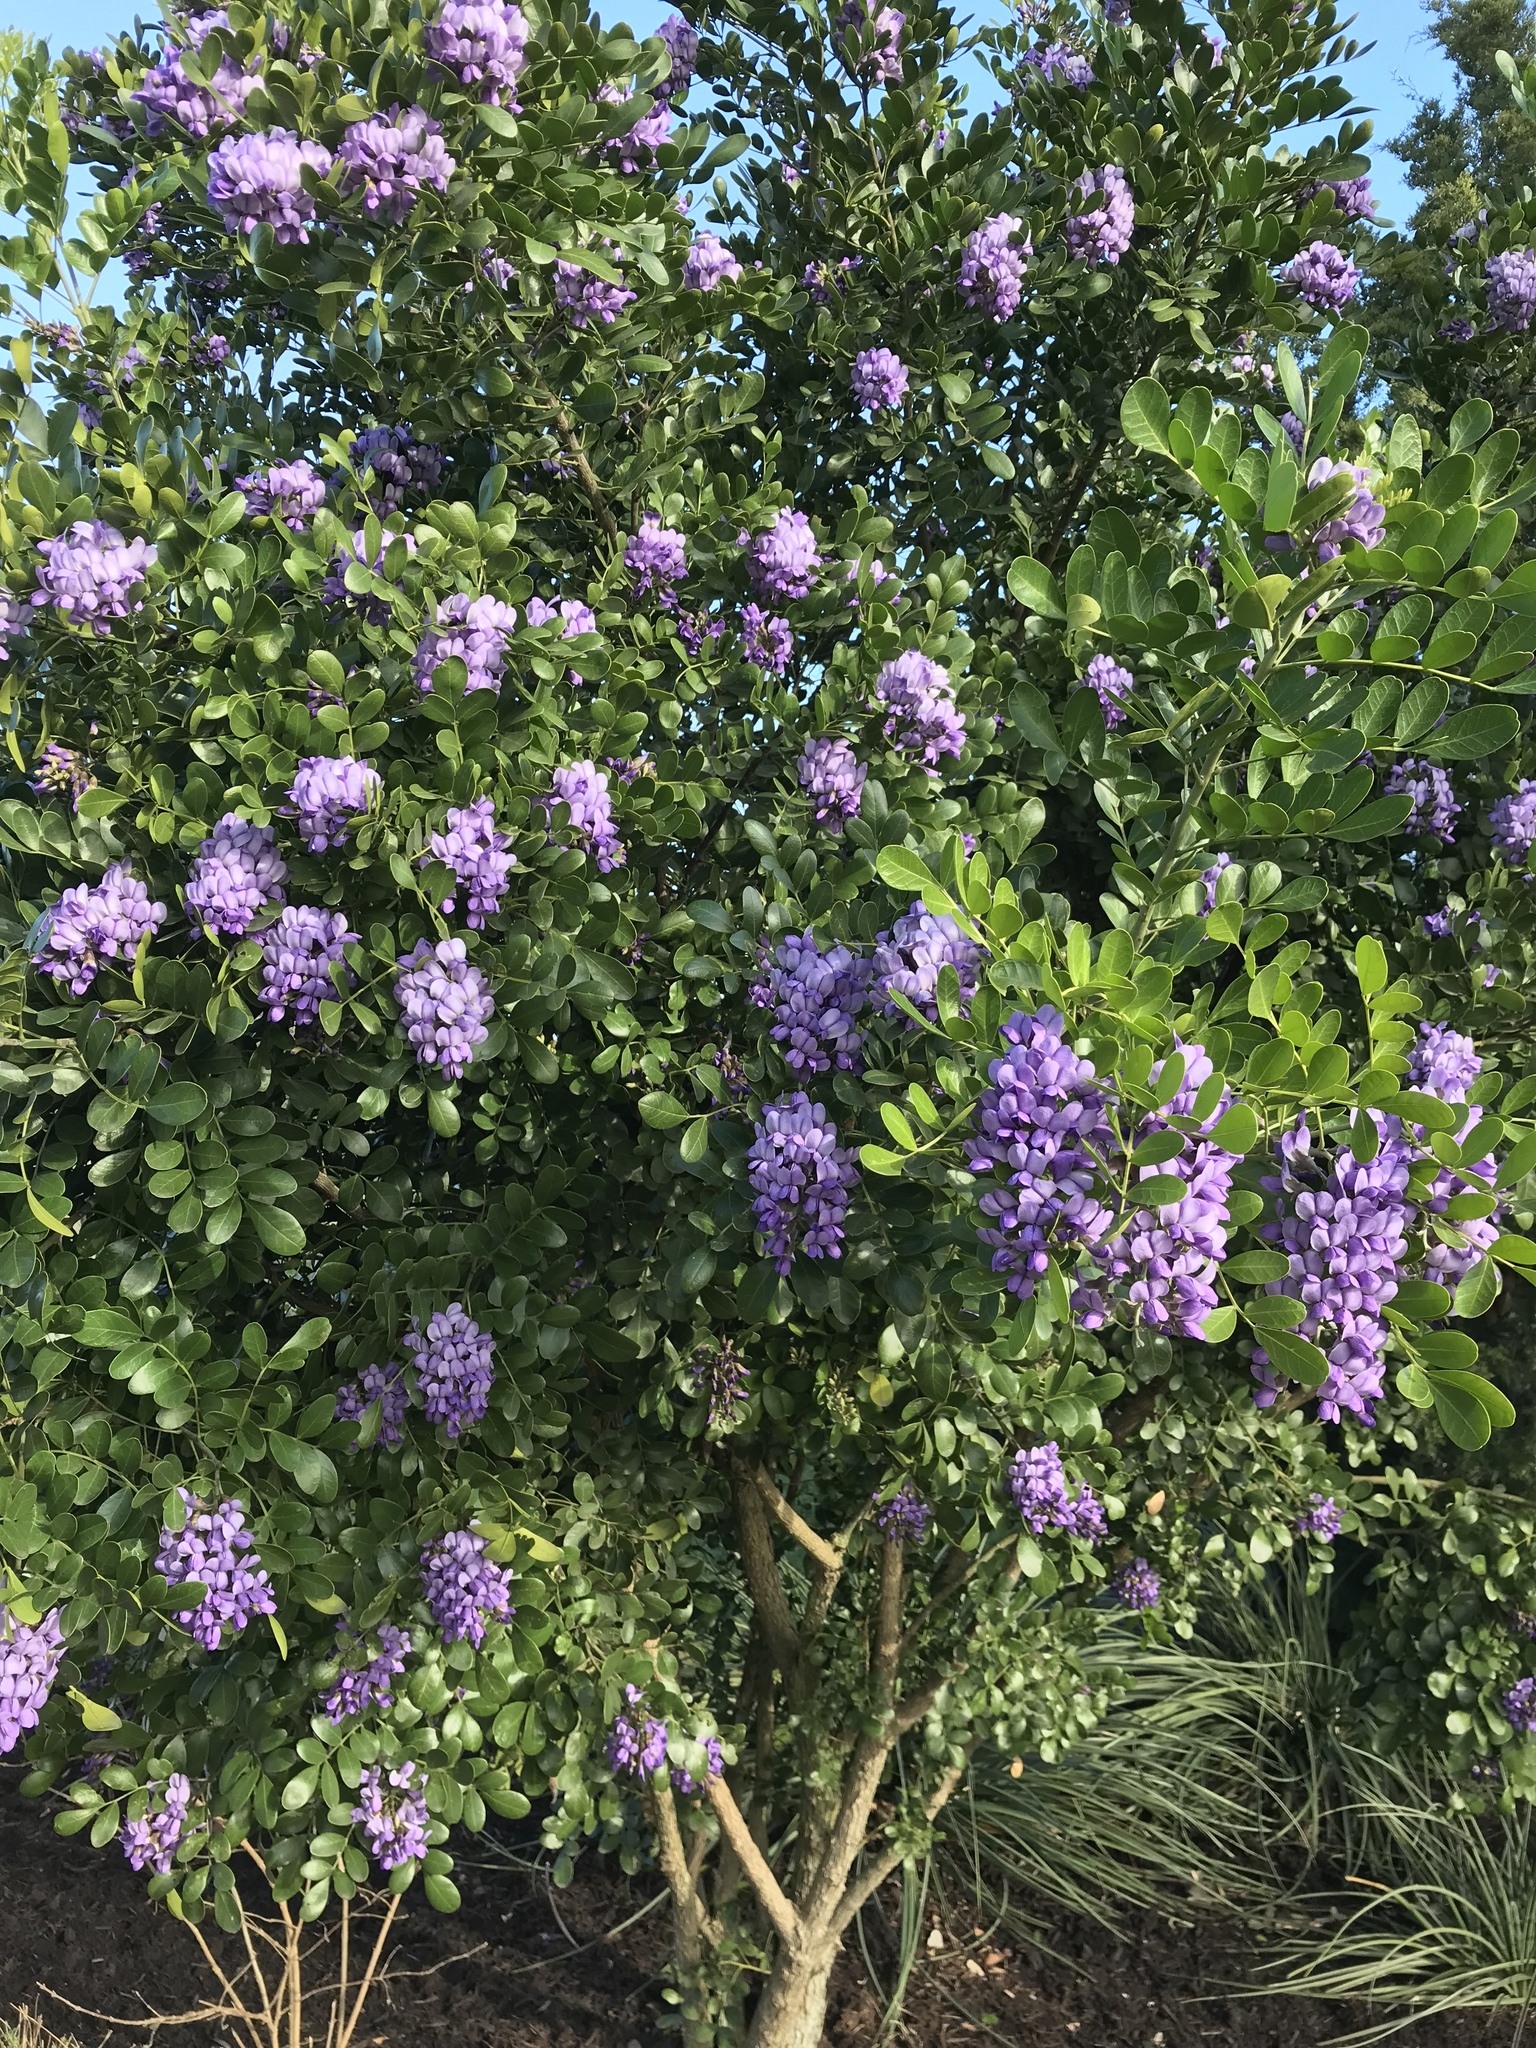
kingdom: Plantae
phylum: Tracheophyta
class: Magnoliopsida
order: Fabales
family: Fabaceae
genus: Dermatophyllum
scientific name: Dermatophyllum secundiflorum
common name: Texas-mountain-laurel
